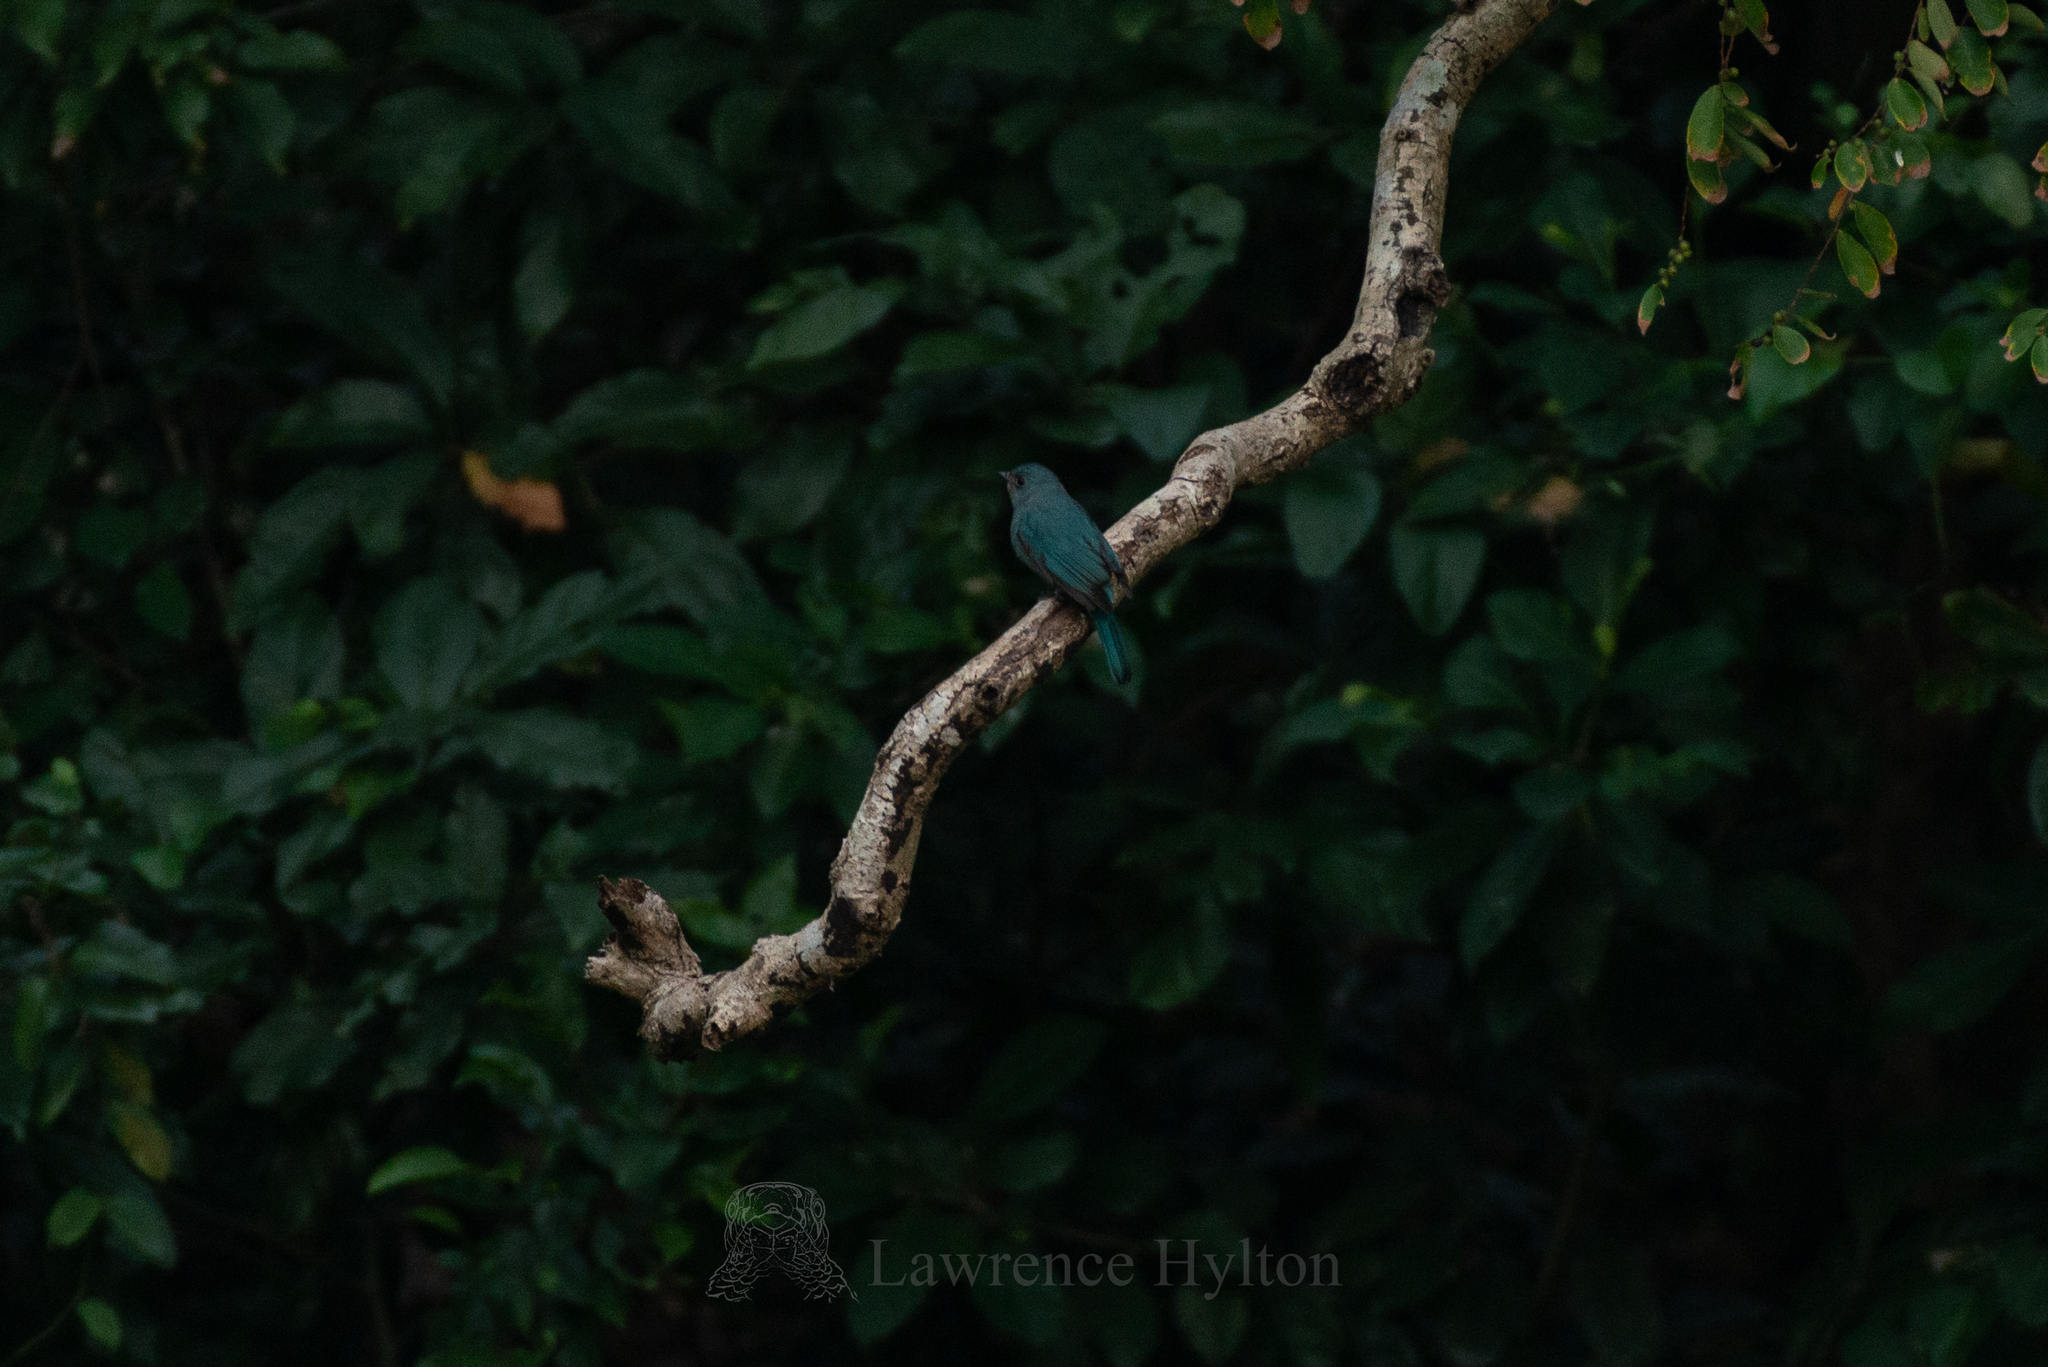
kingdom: Animalia
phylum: Chordata
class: Aves
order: Passeriformes
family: Muscicapidae
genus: Eumyias
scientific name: Eumyias thalassinus
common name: Verditer flycatcher
